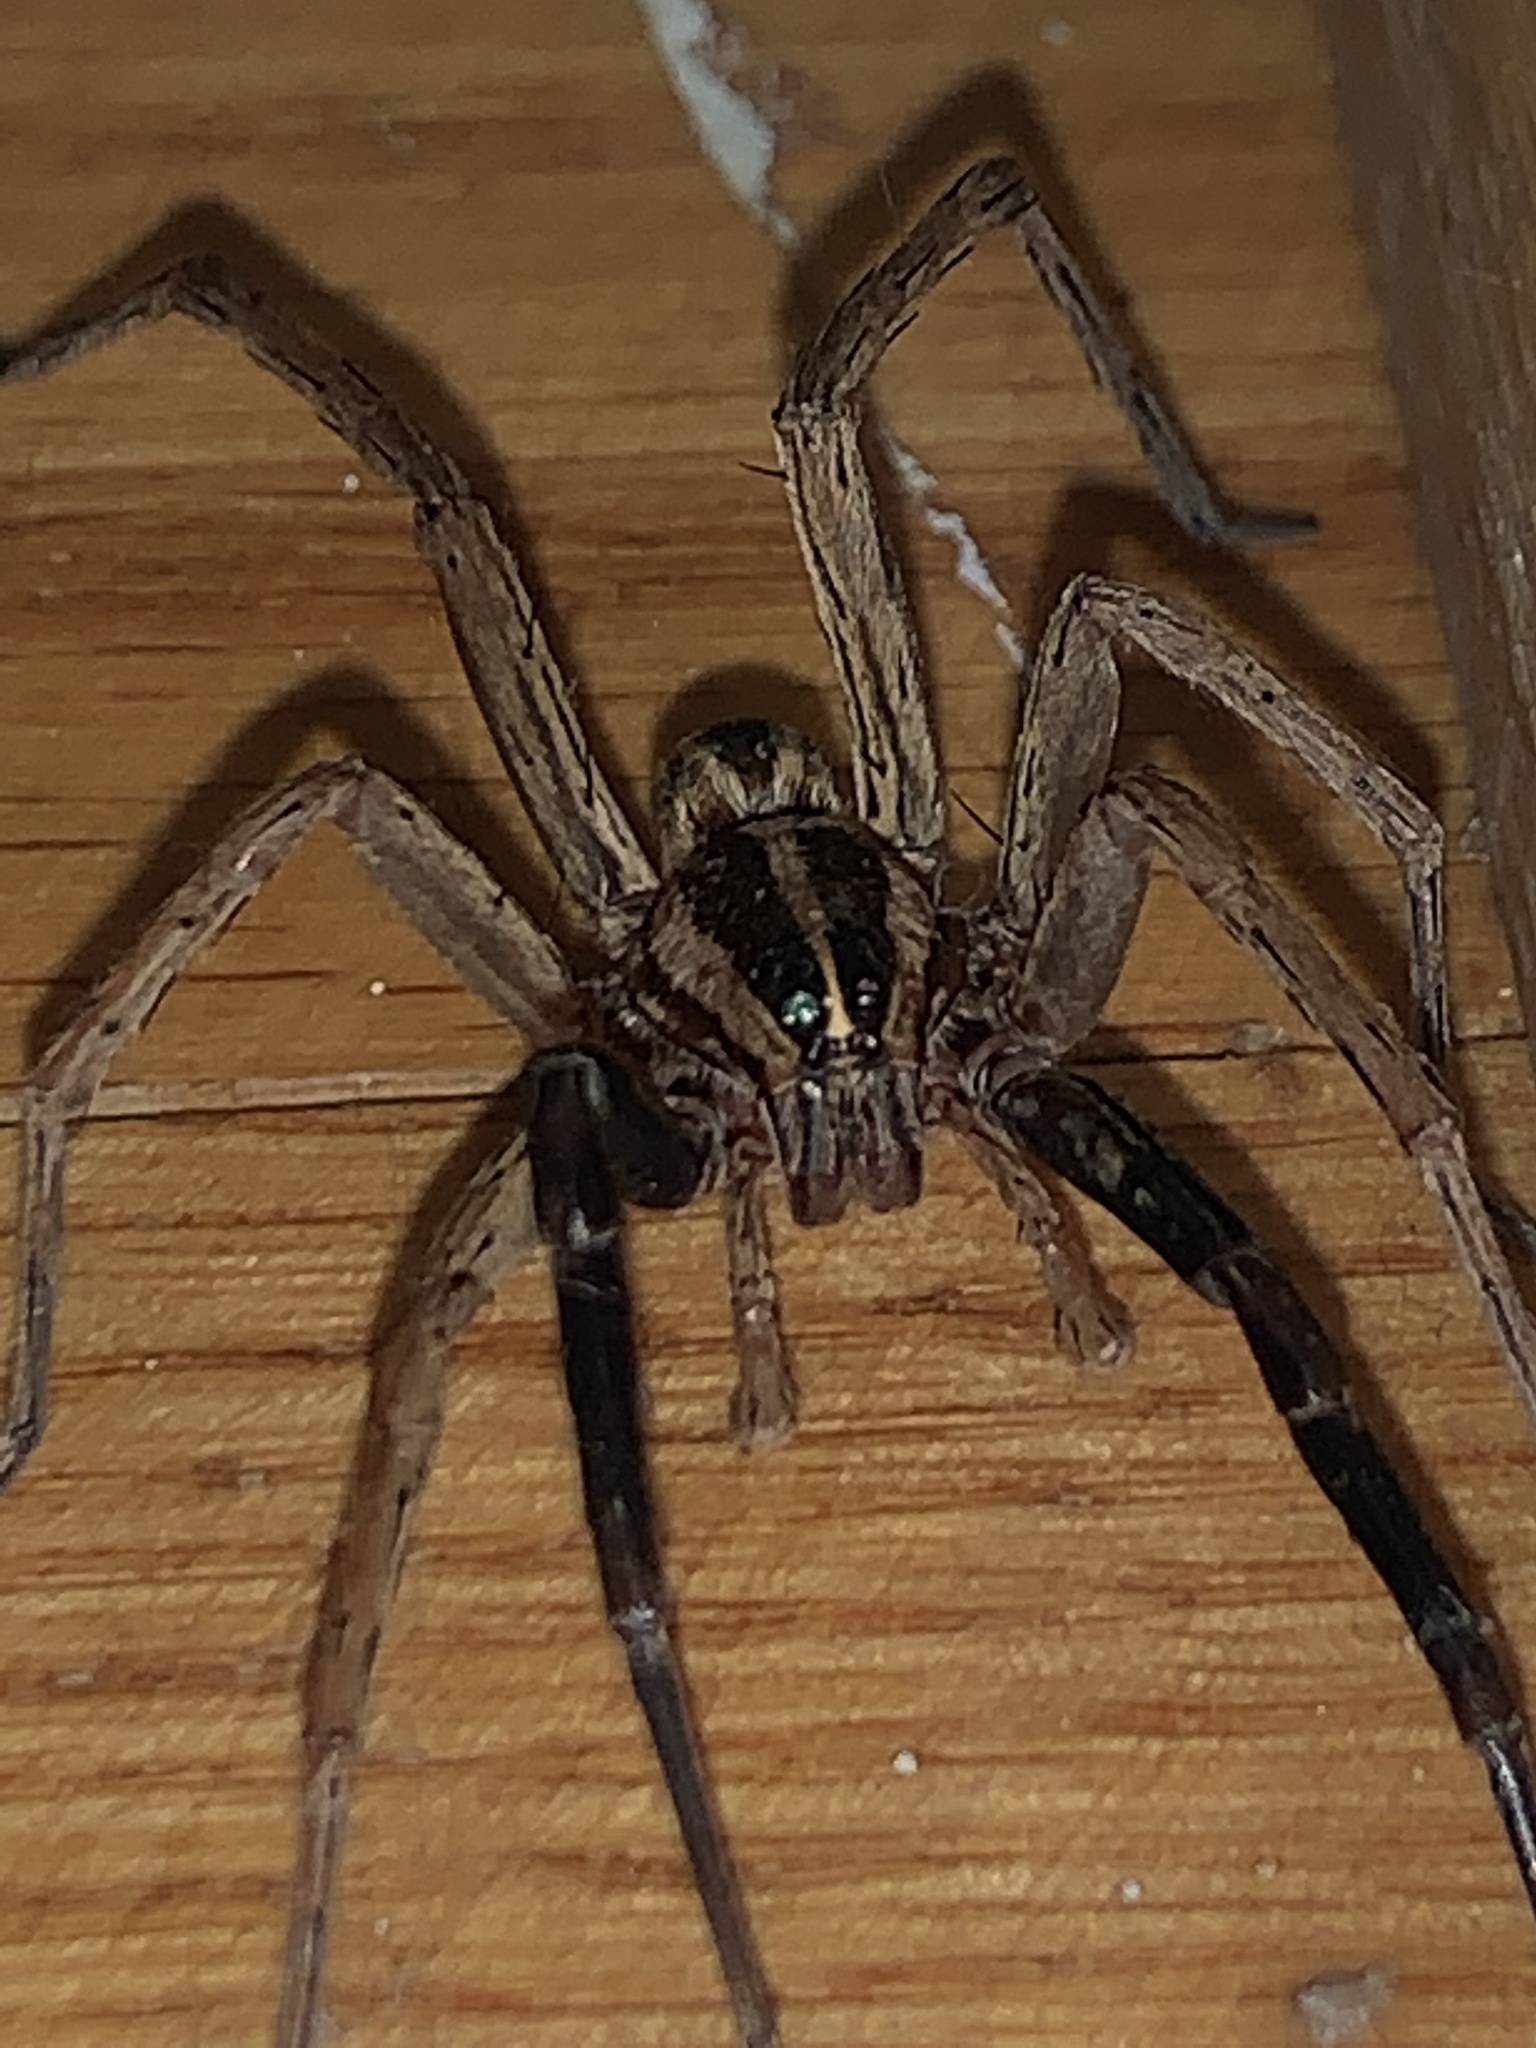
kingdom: Animalia
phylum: Arthropoda
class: Arachnida
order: Araneae
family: Lycosidae
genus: Rabidosa
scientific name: Rabidosa rabida
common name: Rabid wolf spider
